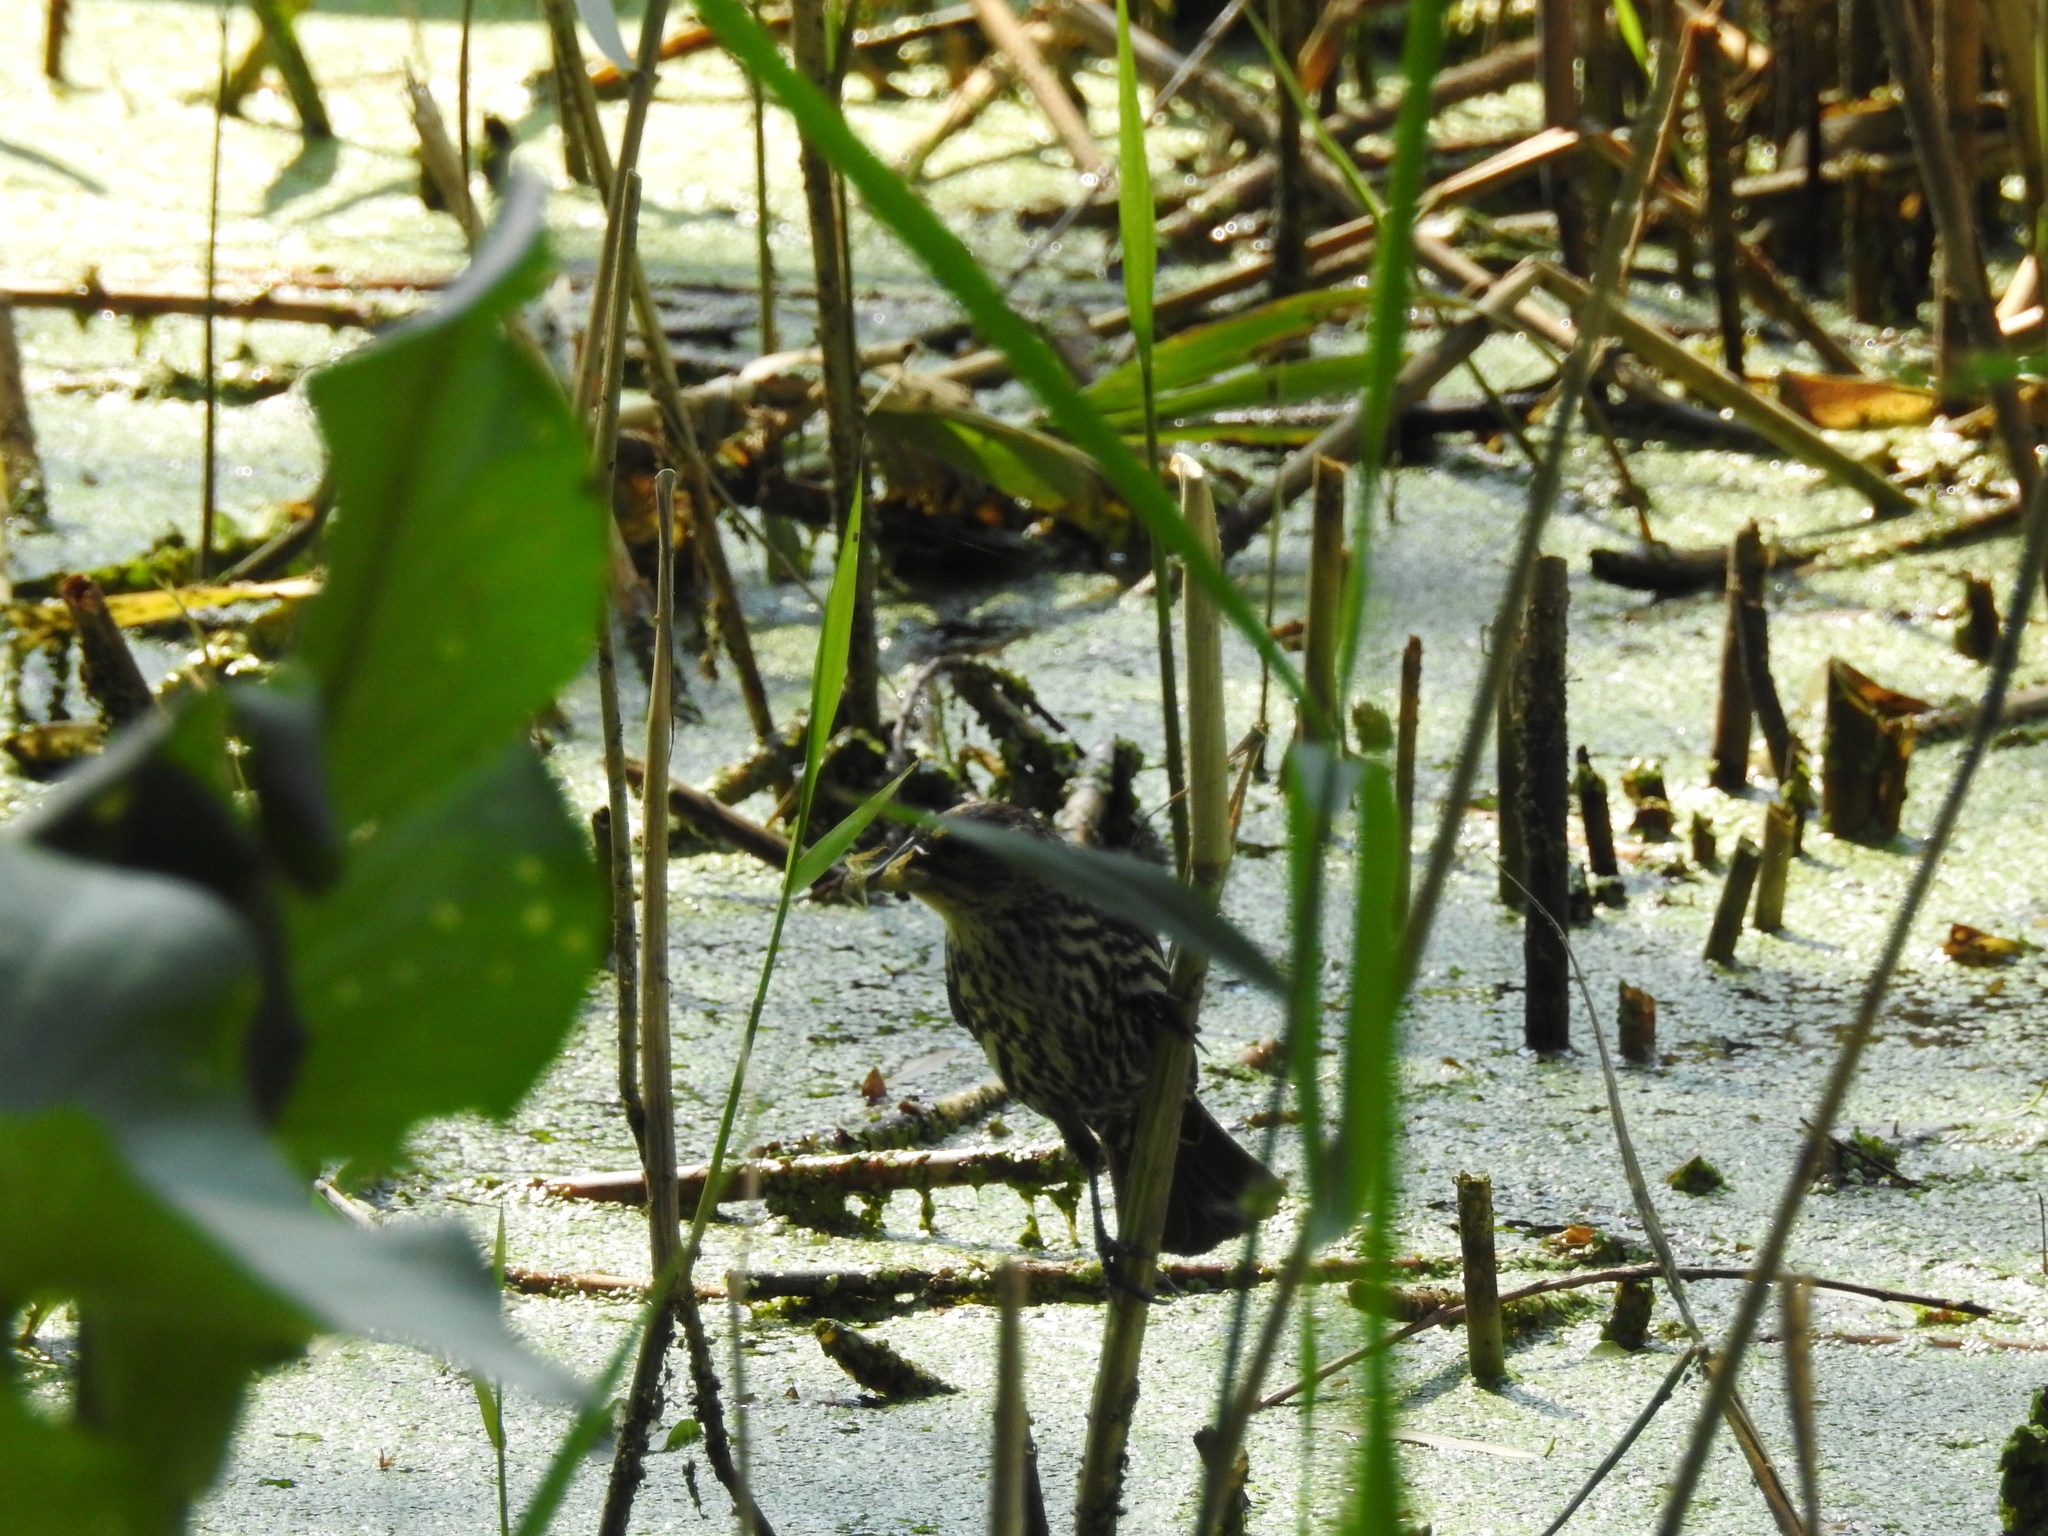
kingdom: Animalia
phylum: Chordata
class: Aves
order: Passeriformes
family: Icteridae
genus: Agelaius
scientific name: Agelaius phoeniceus
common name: Red-winged blackbird
